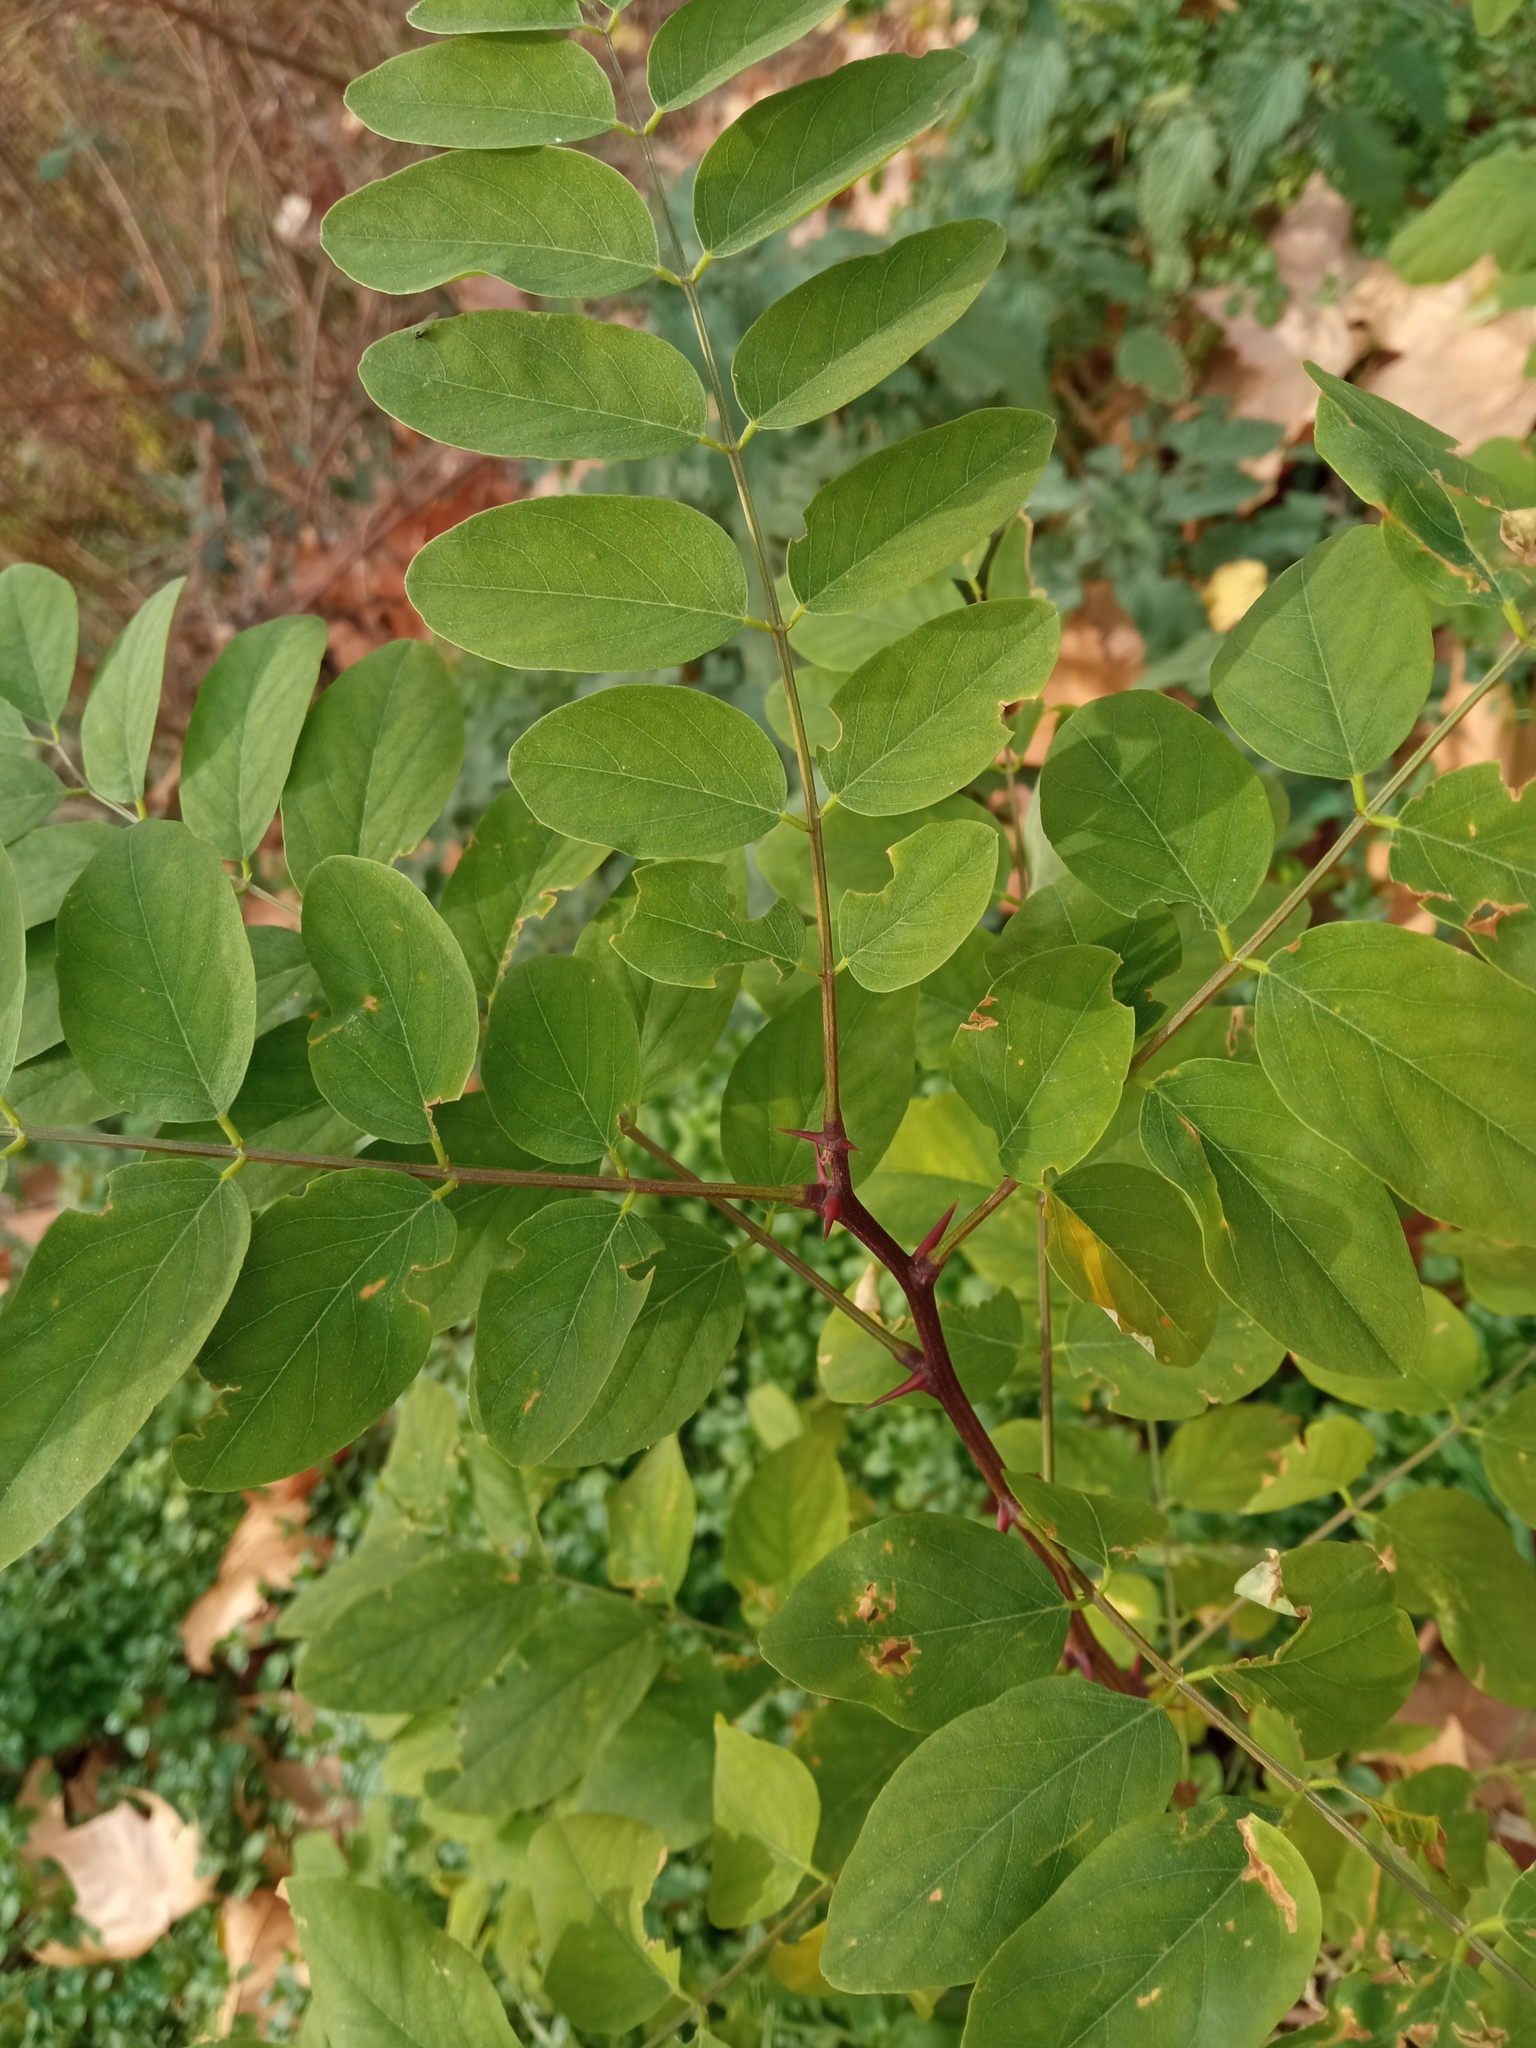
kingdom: Plantae
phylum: Tracheophyta
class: Magnoliopsida
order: Fabales
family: Fabaceae
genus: Robinia
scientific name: Robinia pseudoacacia
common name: Black locust
